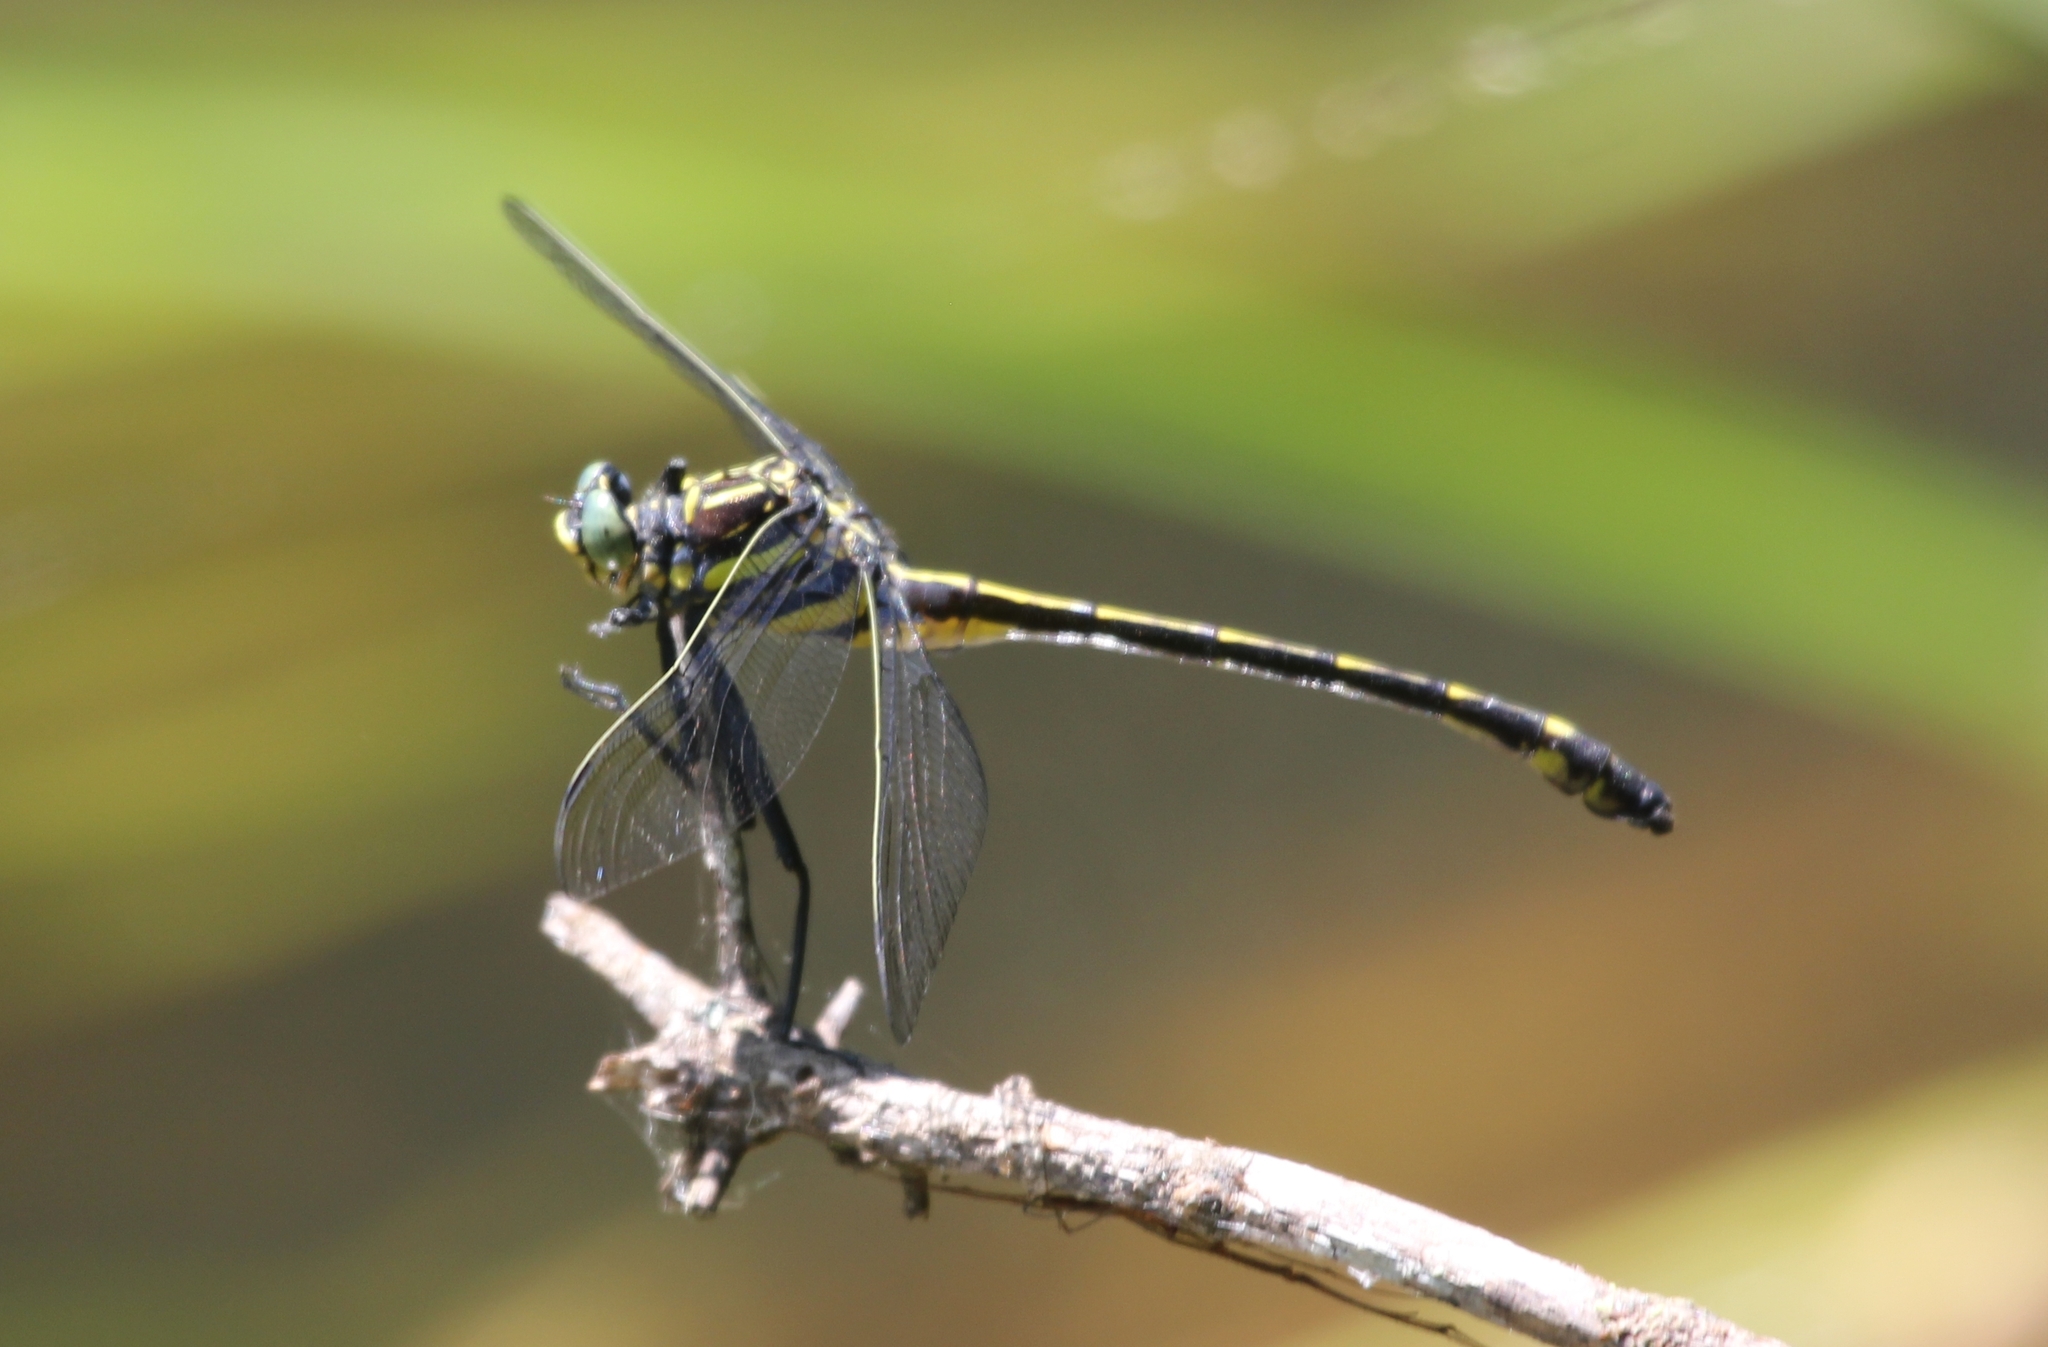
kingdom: Animalia
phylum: Arthropoda
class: Insecta
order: Odonata
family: Gomphidae
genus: Hagenius
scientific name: Hagenius brevistylus
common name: Dragonhunter
